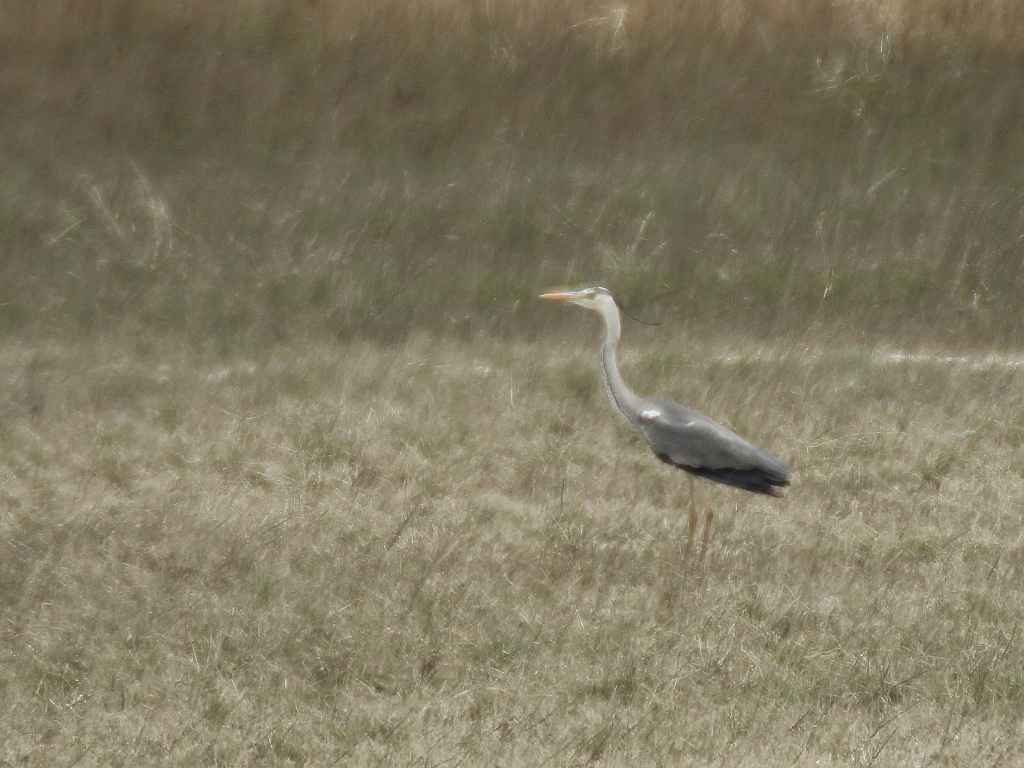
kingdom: Animalia
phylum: Chordata
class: Aves
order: Pelecaniformes
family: Ardeidae
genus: Ardea
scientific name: Ardea cinerea
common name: Grey heron
